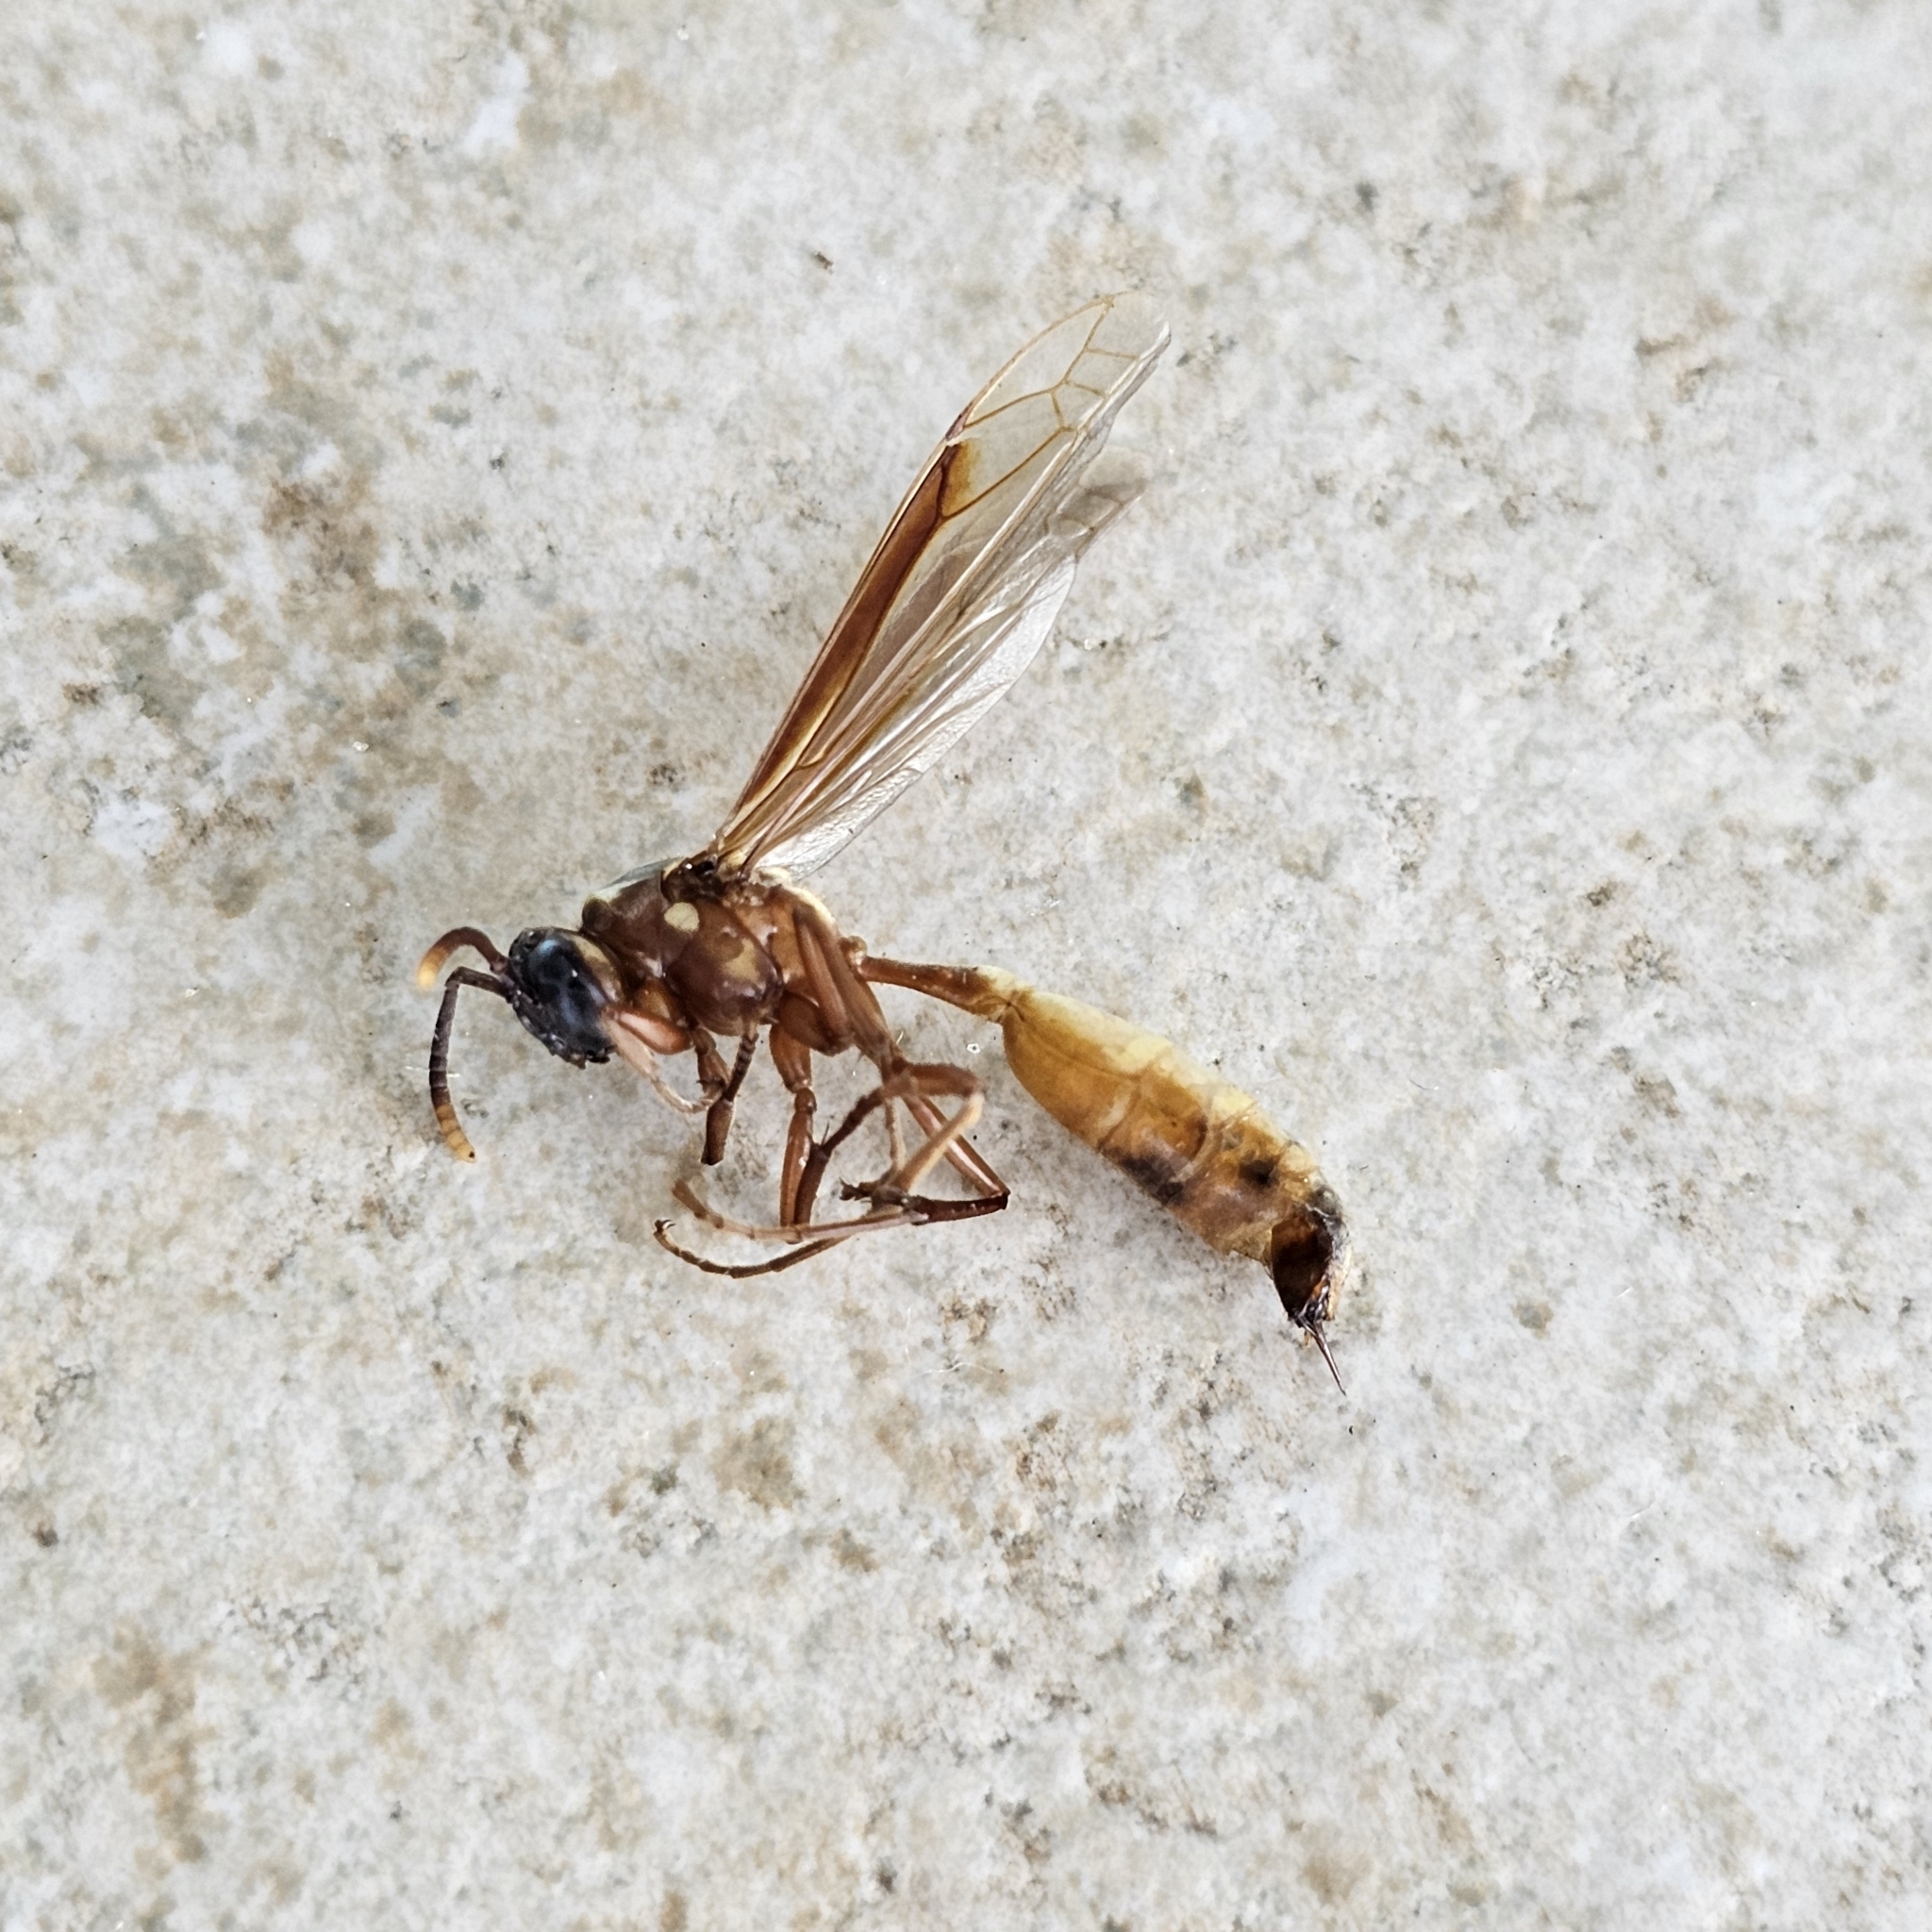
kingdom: Animalia
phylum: Arthropoda
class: Insecta
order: Hymenoptera
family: Vespidae
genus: Apoica
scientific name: Apoica pallens
